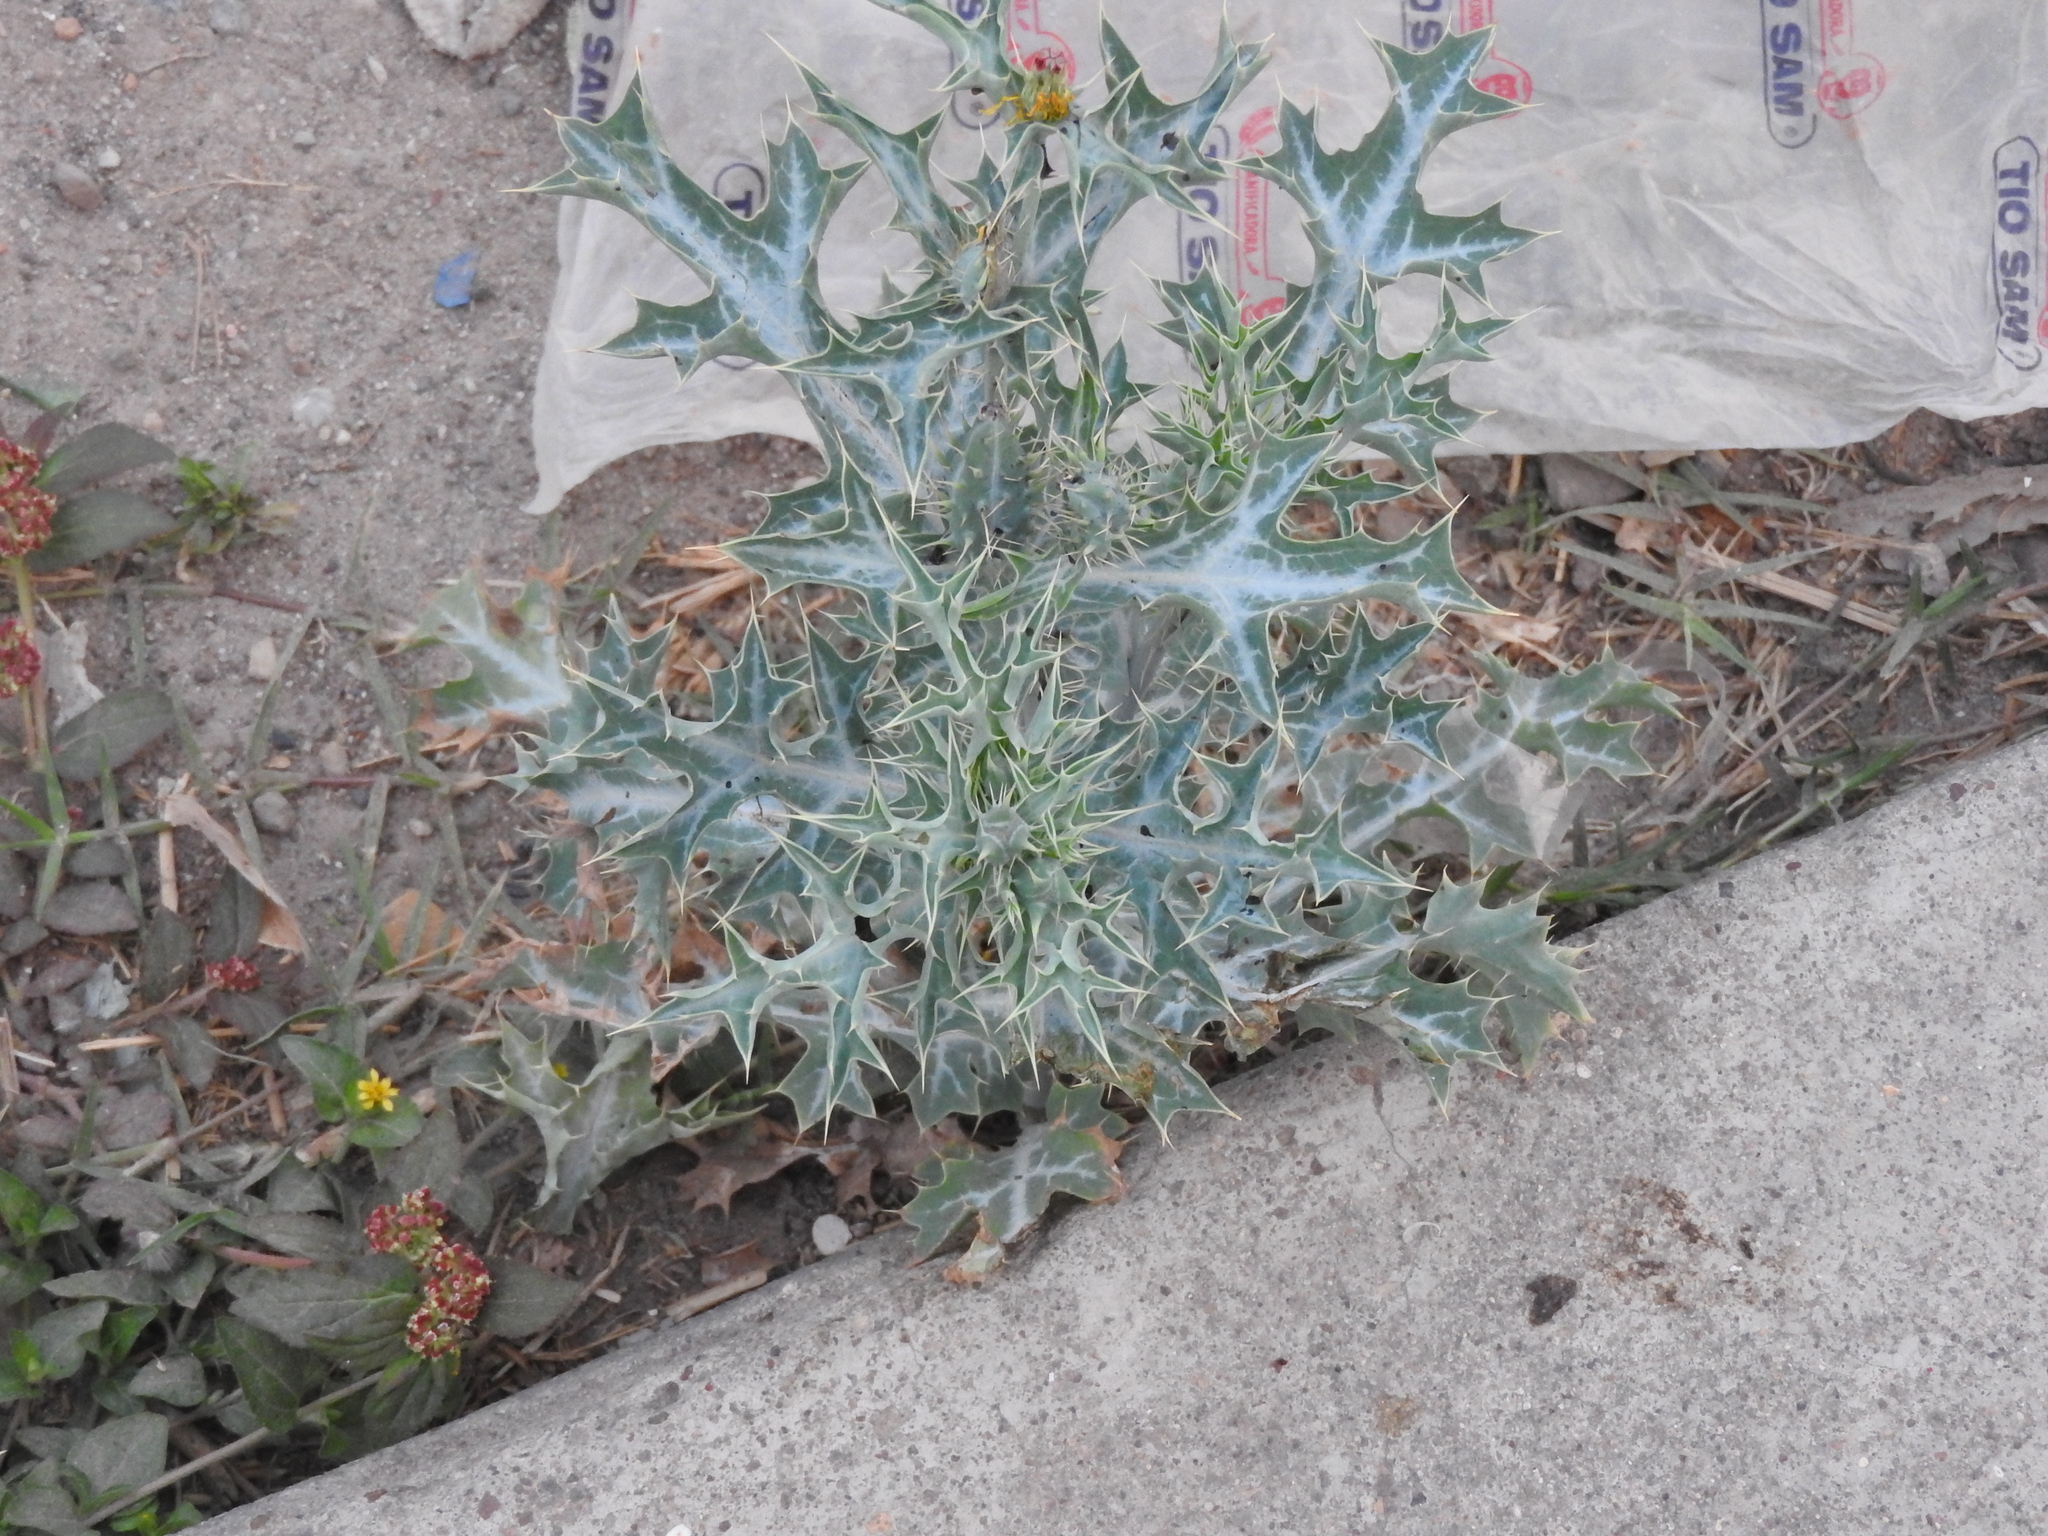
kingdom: Plantae
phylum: Tracheophyta
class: Magnoliopsida
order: Ranunculales
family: Papaveraceae
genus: Argemone
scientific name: Argemone ochroleuca
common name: White-flower mexican-poppy
